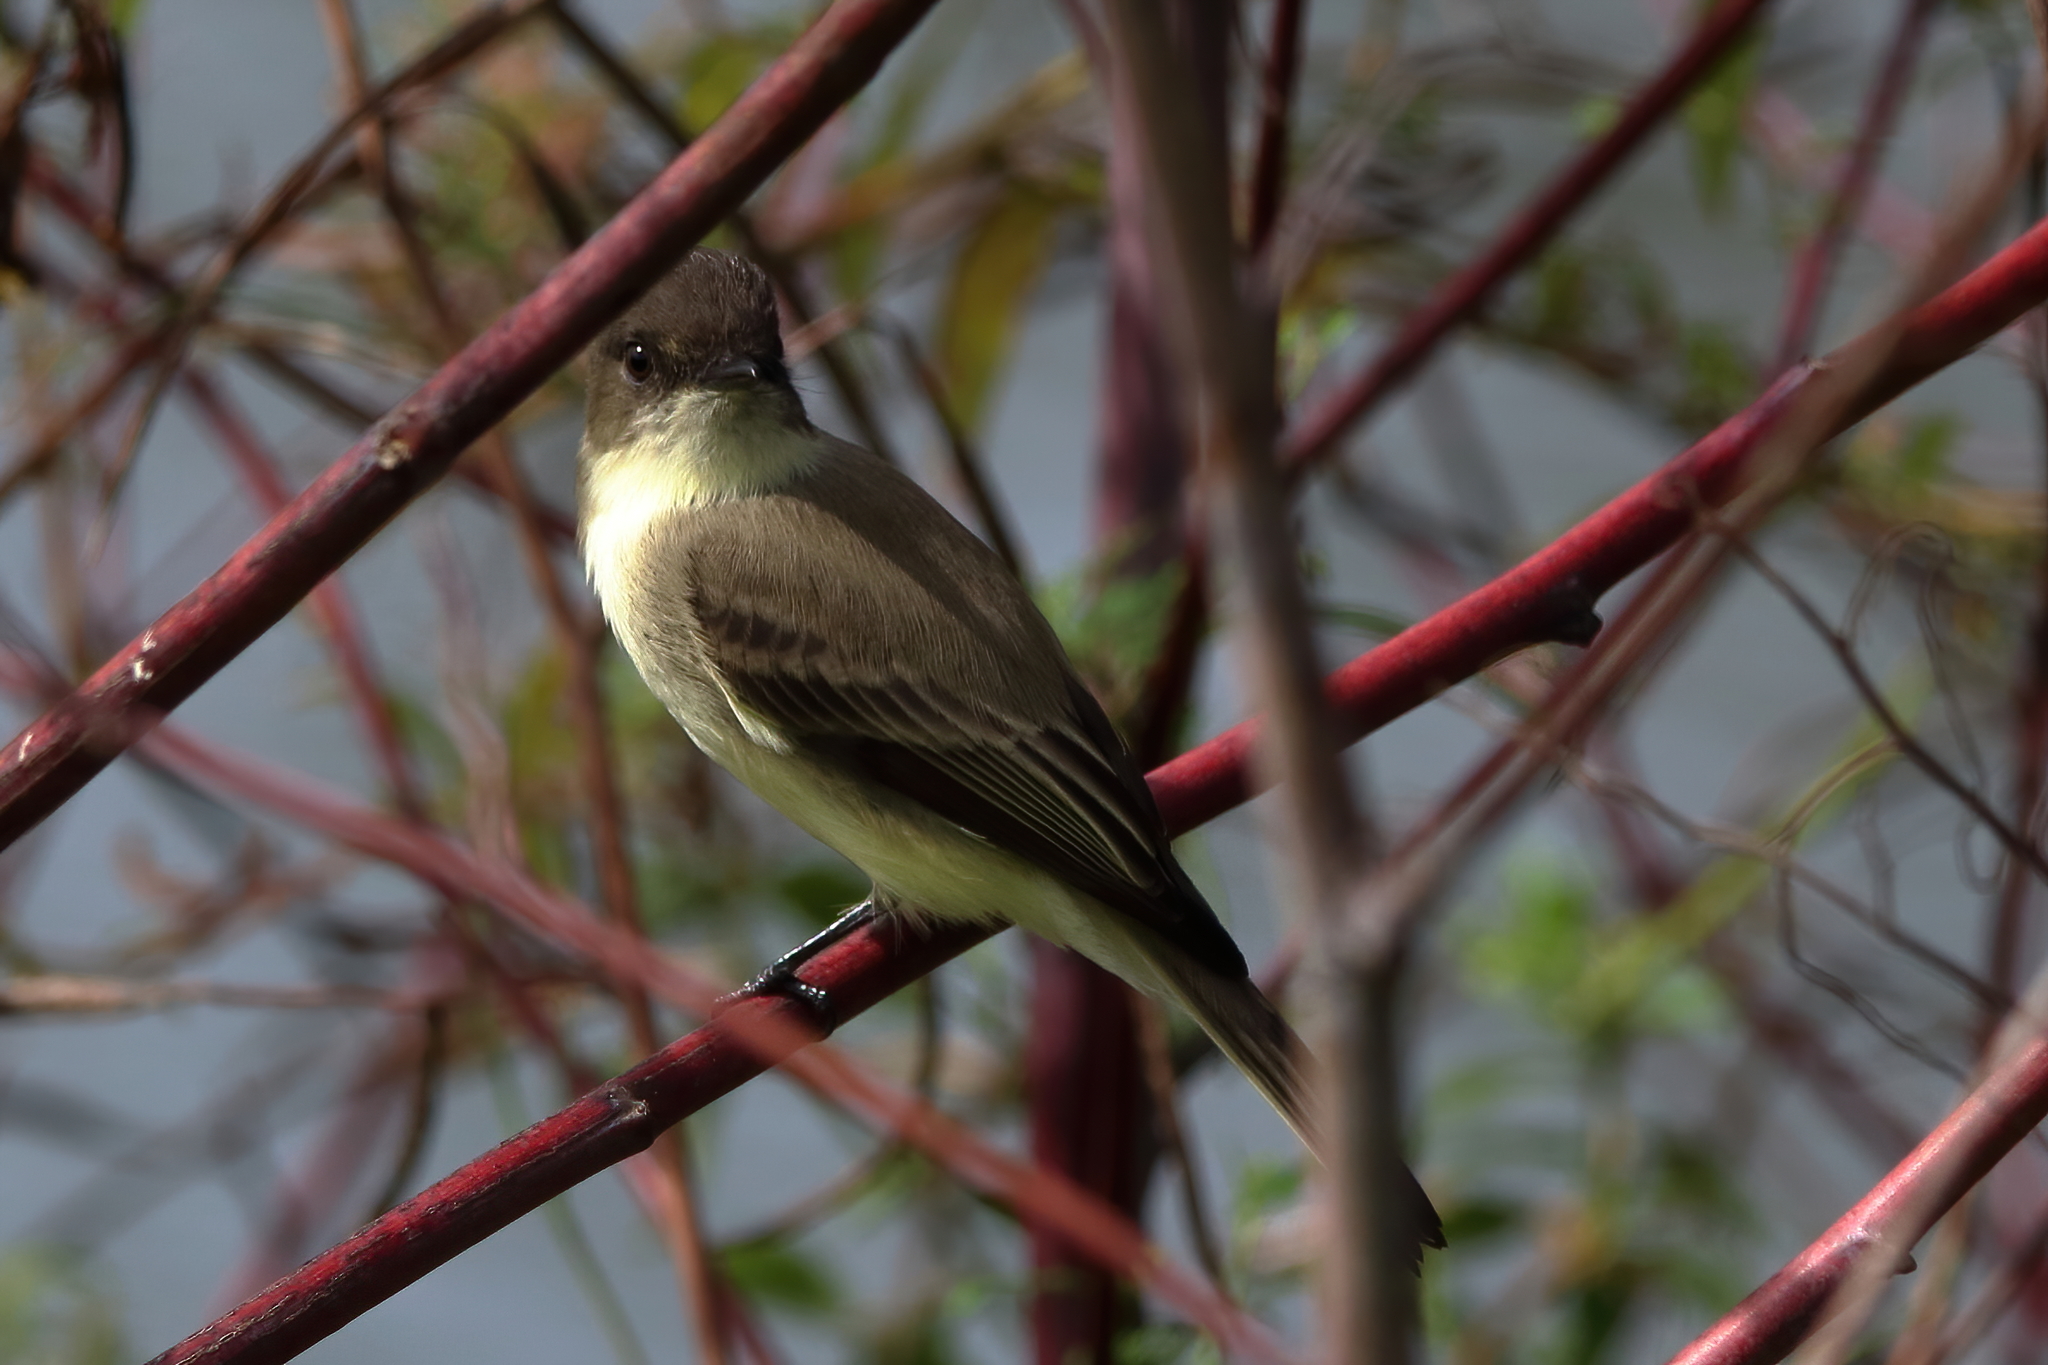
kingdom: Animalia
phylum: Chordata
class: Aves
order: Passeriformes
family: Tyrannidae
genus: Sayornis
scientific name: Sayornis phoebe
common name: Eastern phoebe
